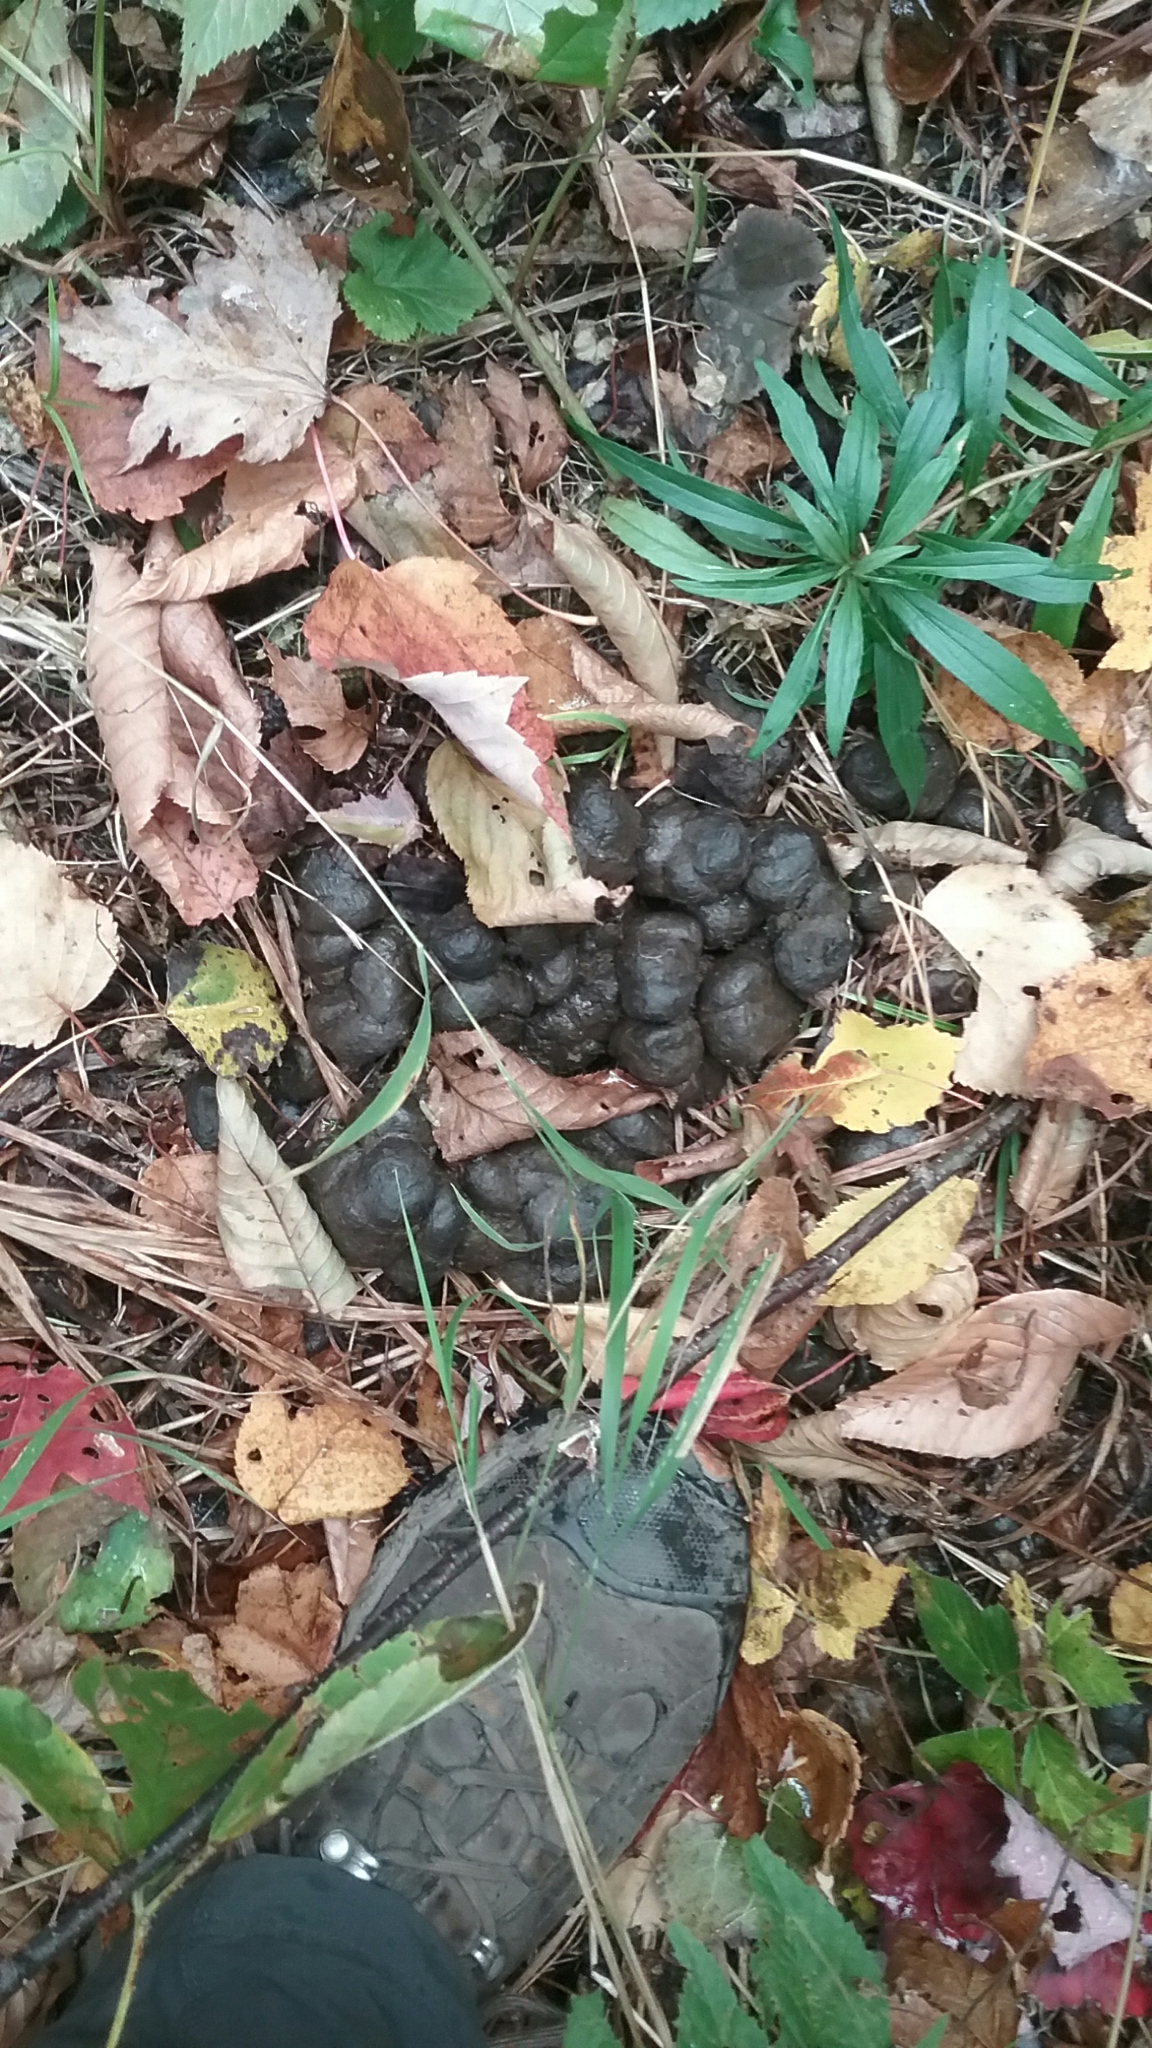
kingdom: Animalia
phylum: Chordata
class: Mammalia
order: Artiodactyla
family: Cervidae
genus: Alces
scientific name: Alces alces
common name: Moose
